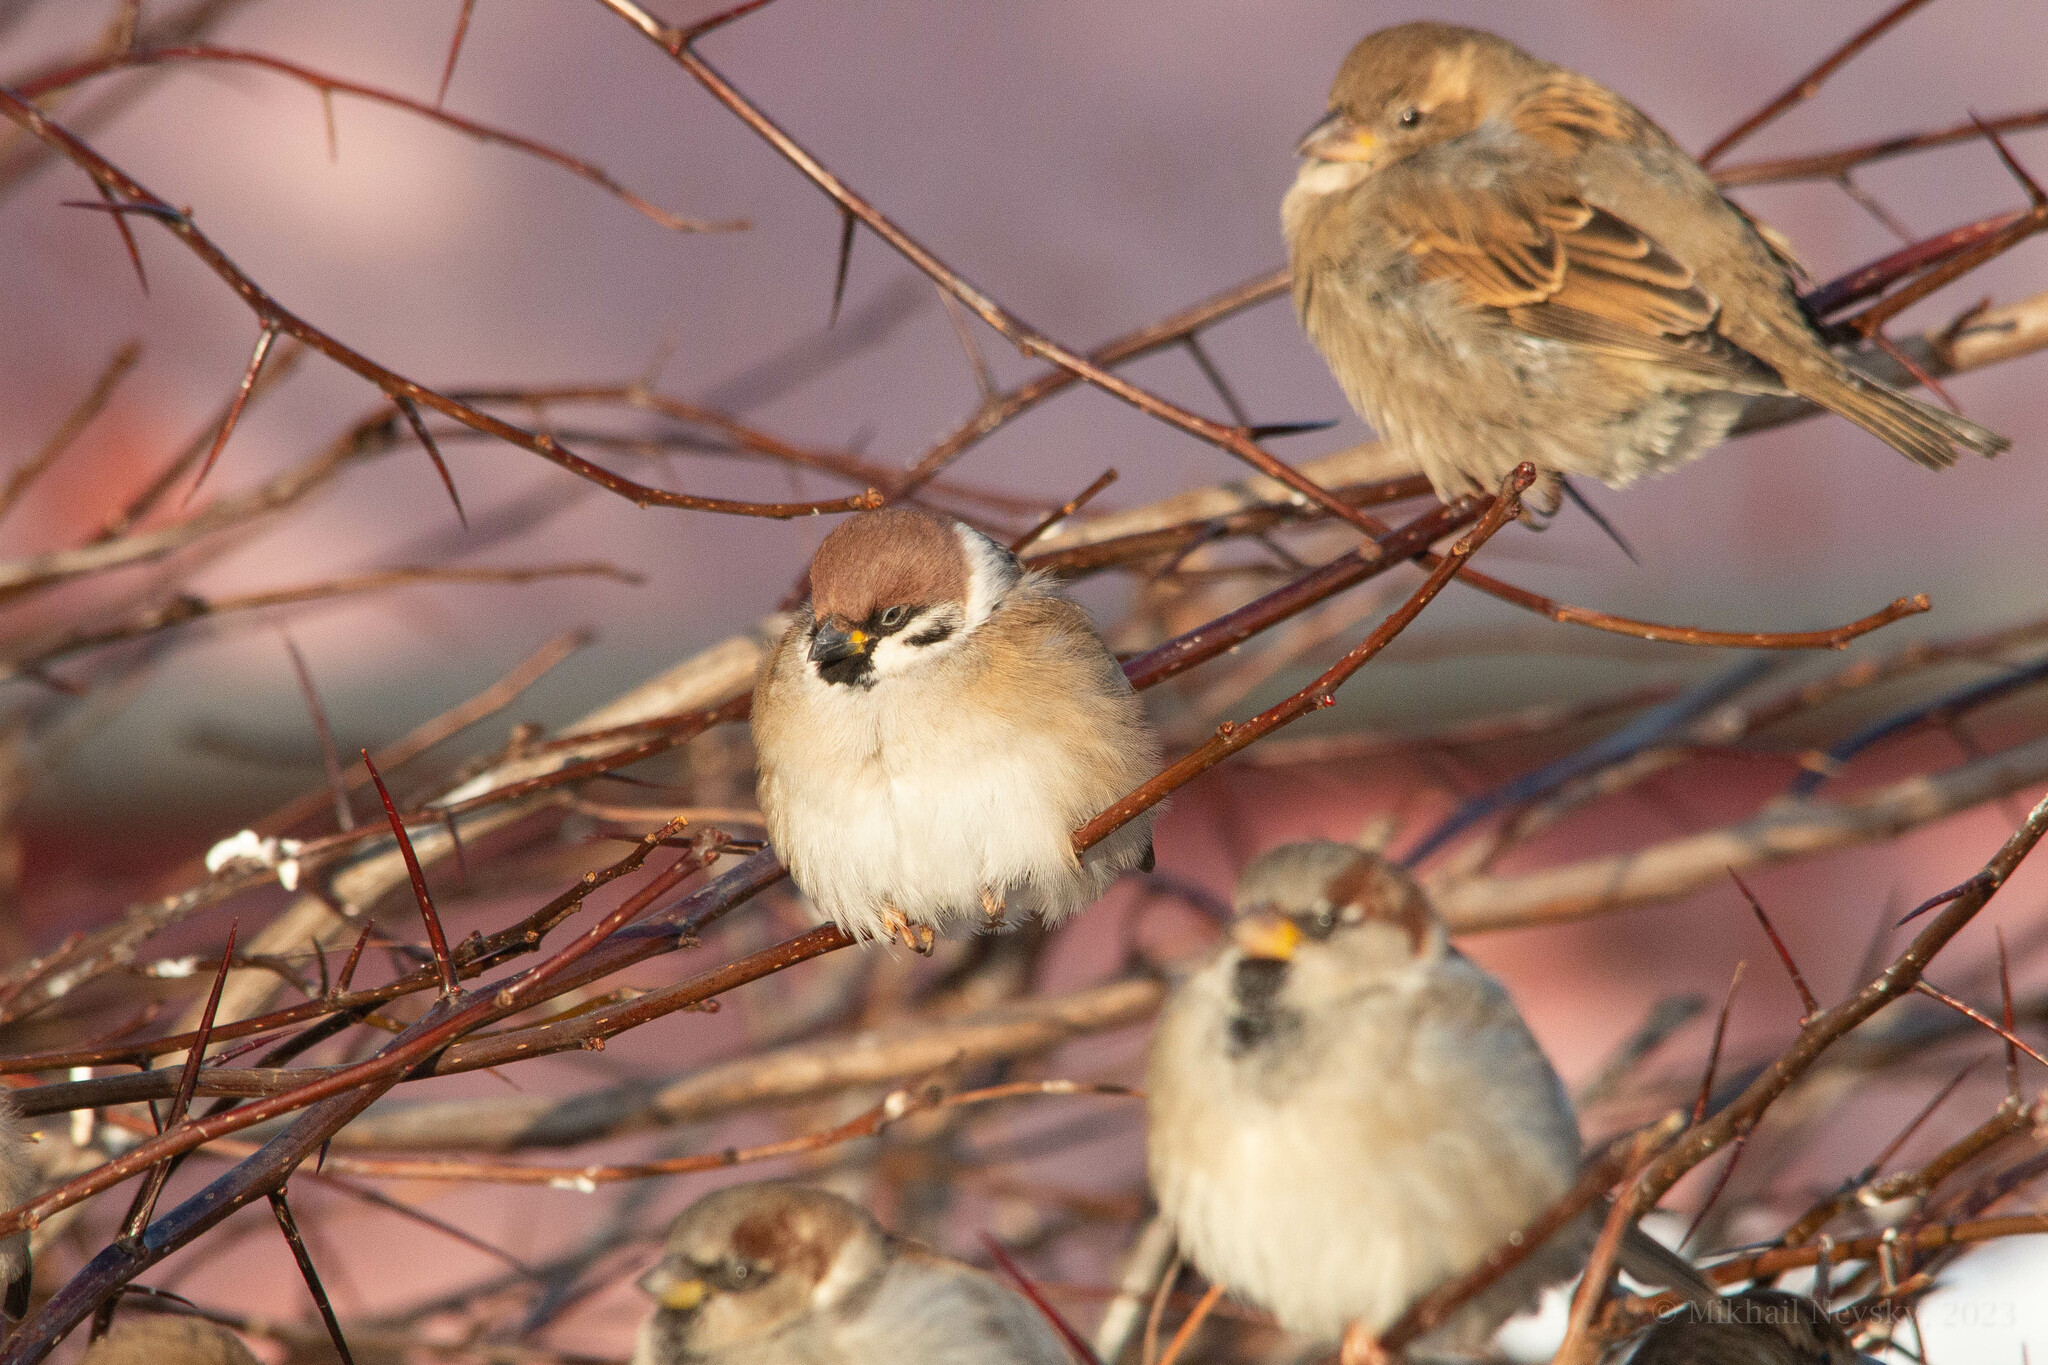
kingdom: Animalia
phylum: Chordata
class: Aves
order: Passeriformes
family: Passeridae
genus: Passer
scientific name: Passer montanus
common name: Eurasian tree sparrow
